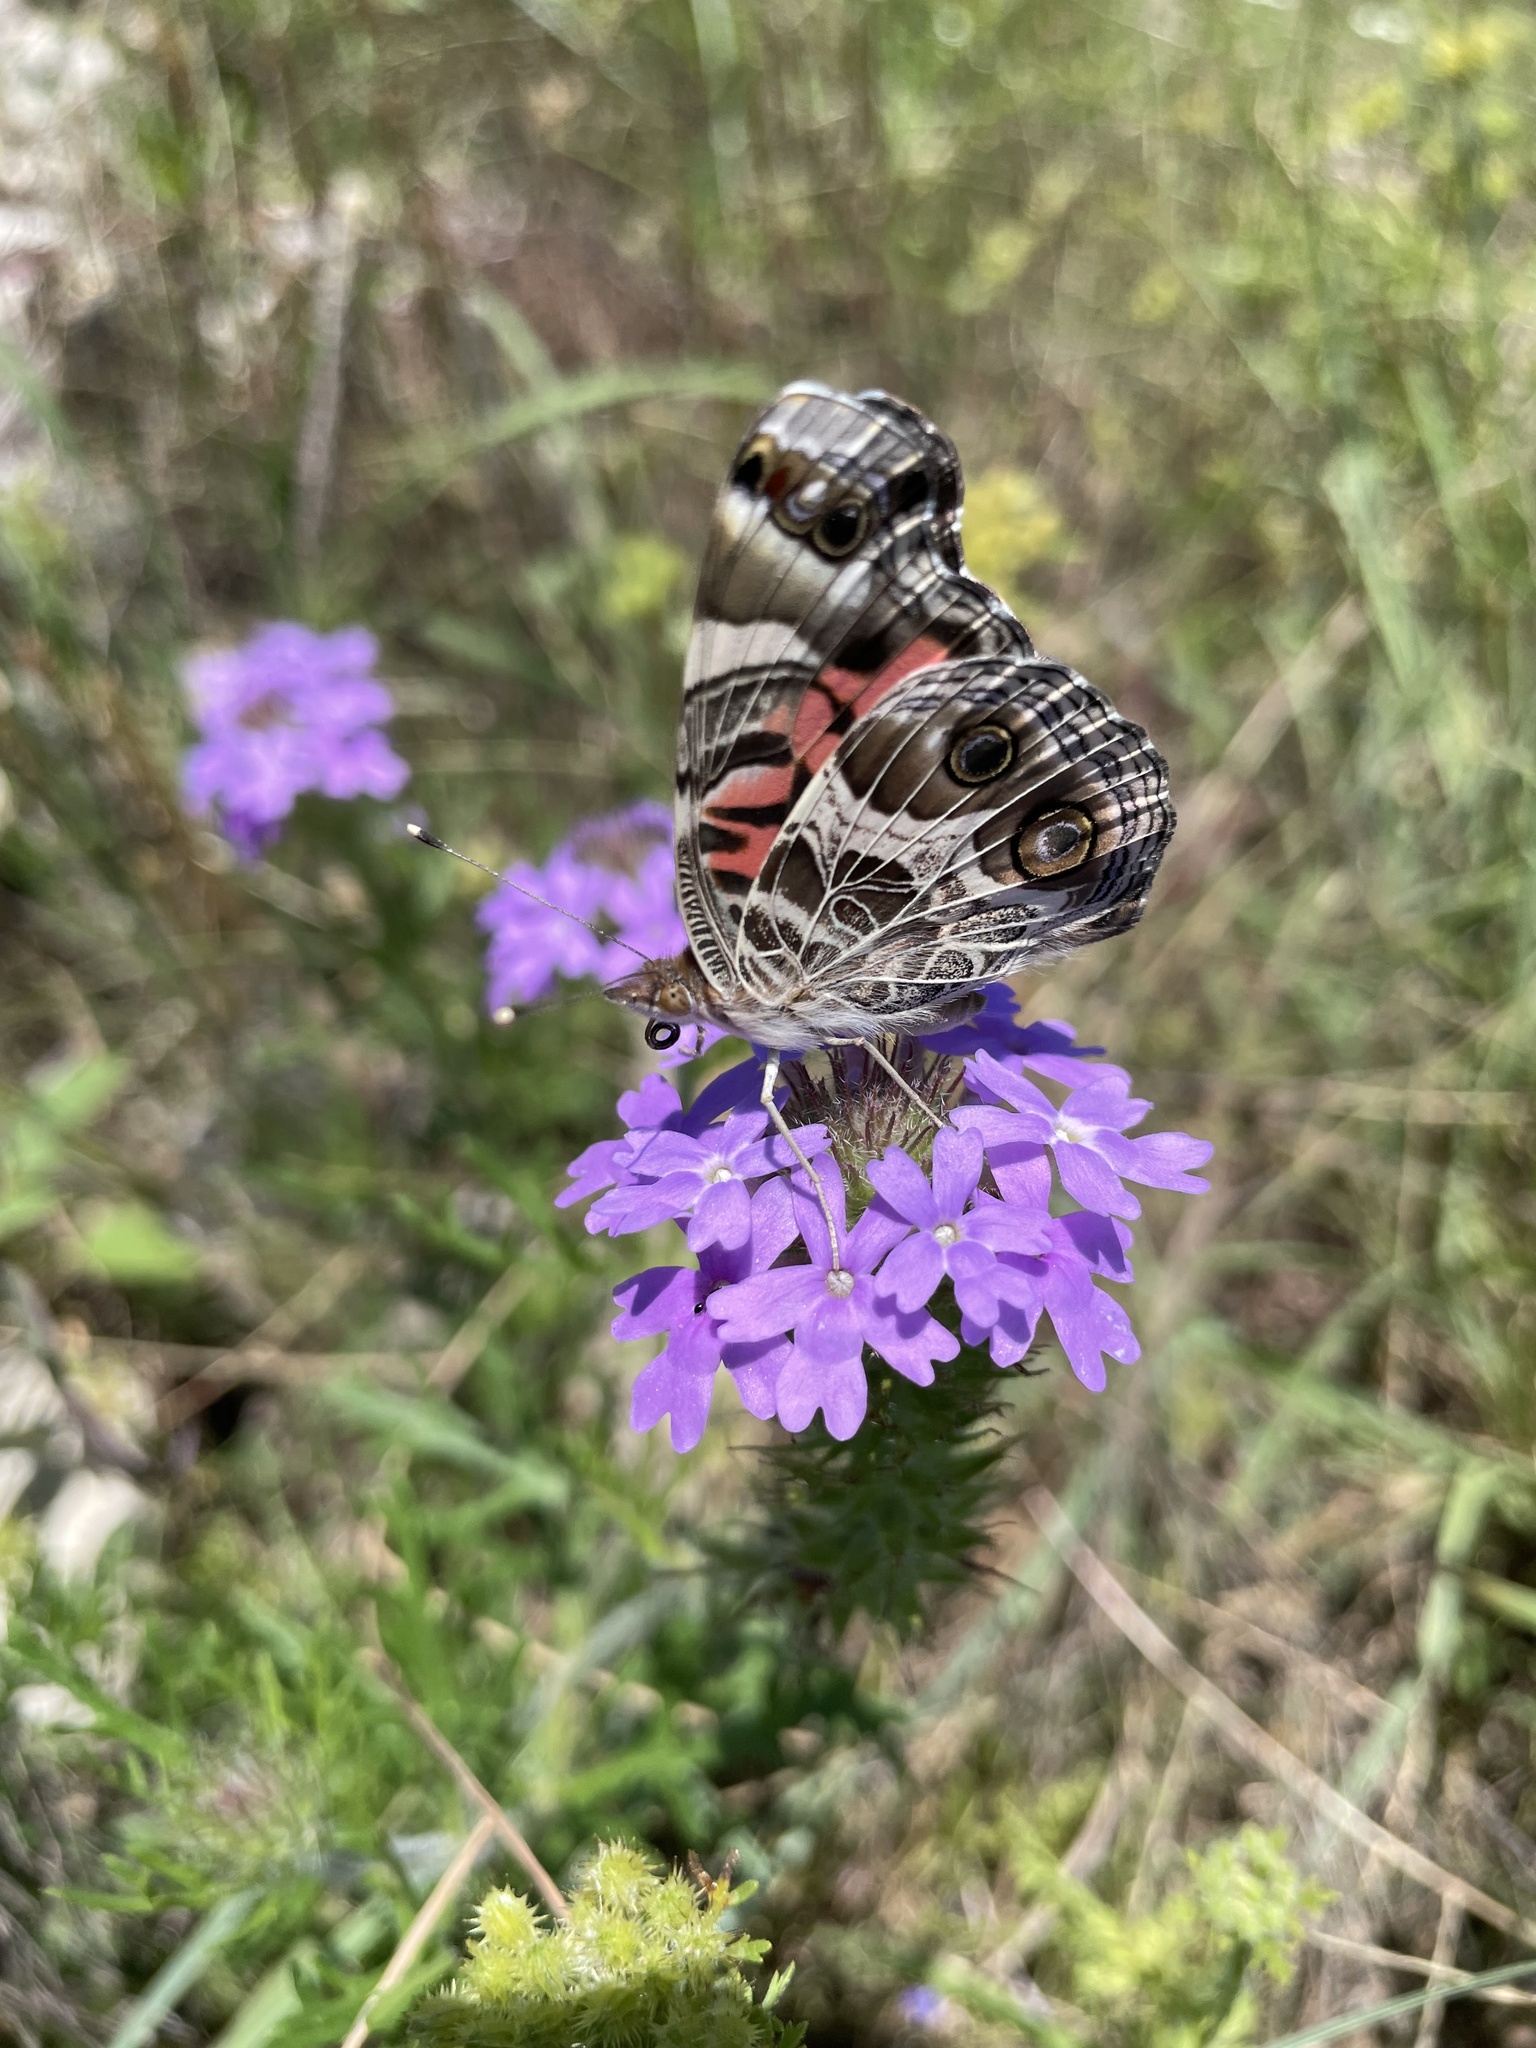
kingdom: Animalia
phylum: Arthropoda
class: Insecta
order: Lepidoptera
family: Nymphalidae
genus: Vanessa
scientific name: Vanessa virginiensis
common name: American lady
